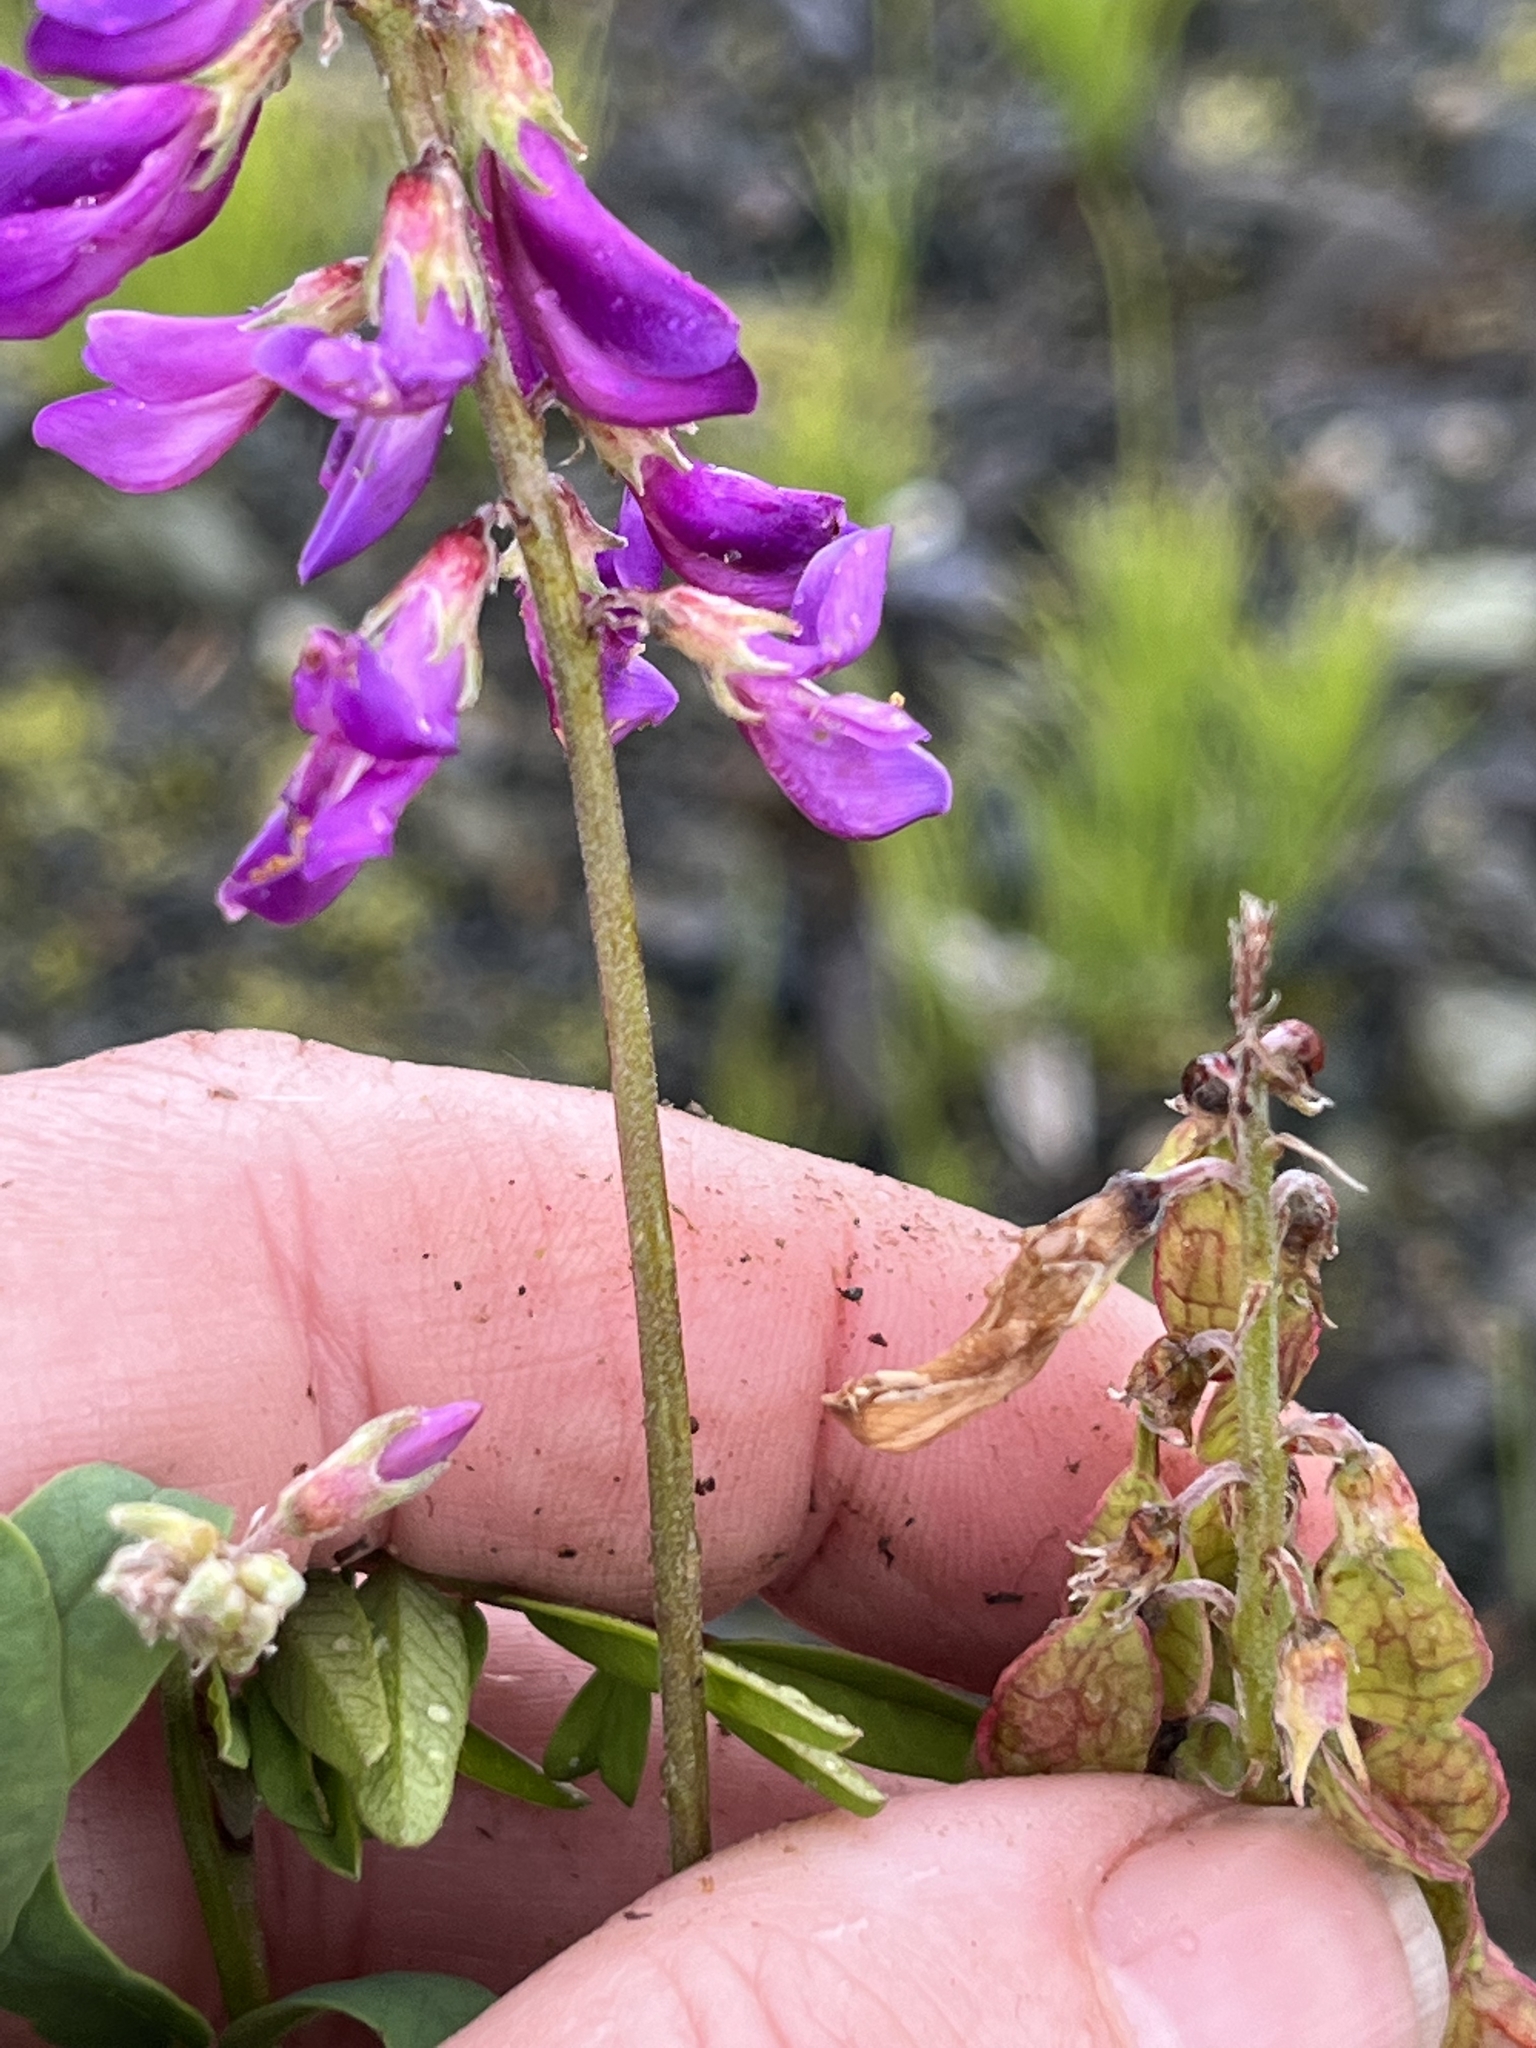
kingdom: Plantae
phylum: Tracheophyta
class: Magnoliopsida
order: Fabales
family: Fabaceae
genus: Hedysarum
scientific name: Hedysarum alpinum
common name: Alpine sweet-vetch
